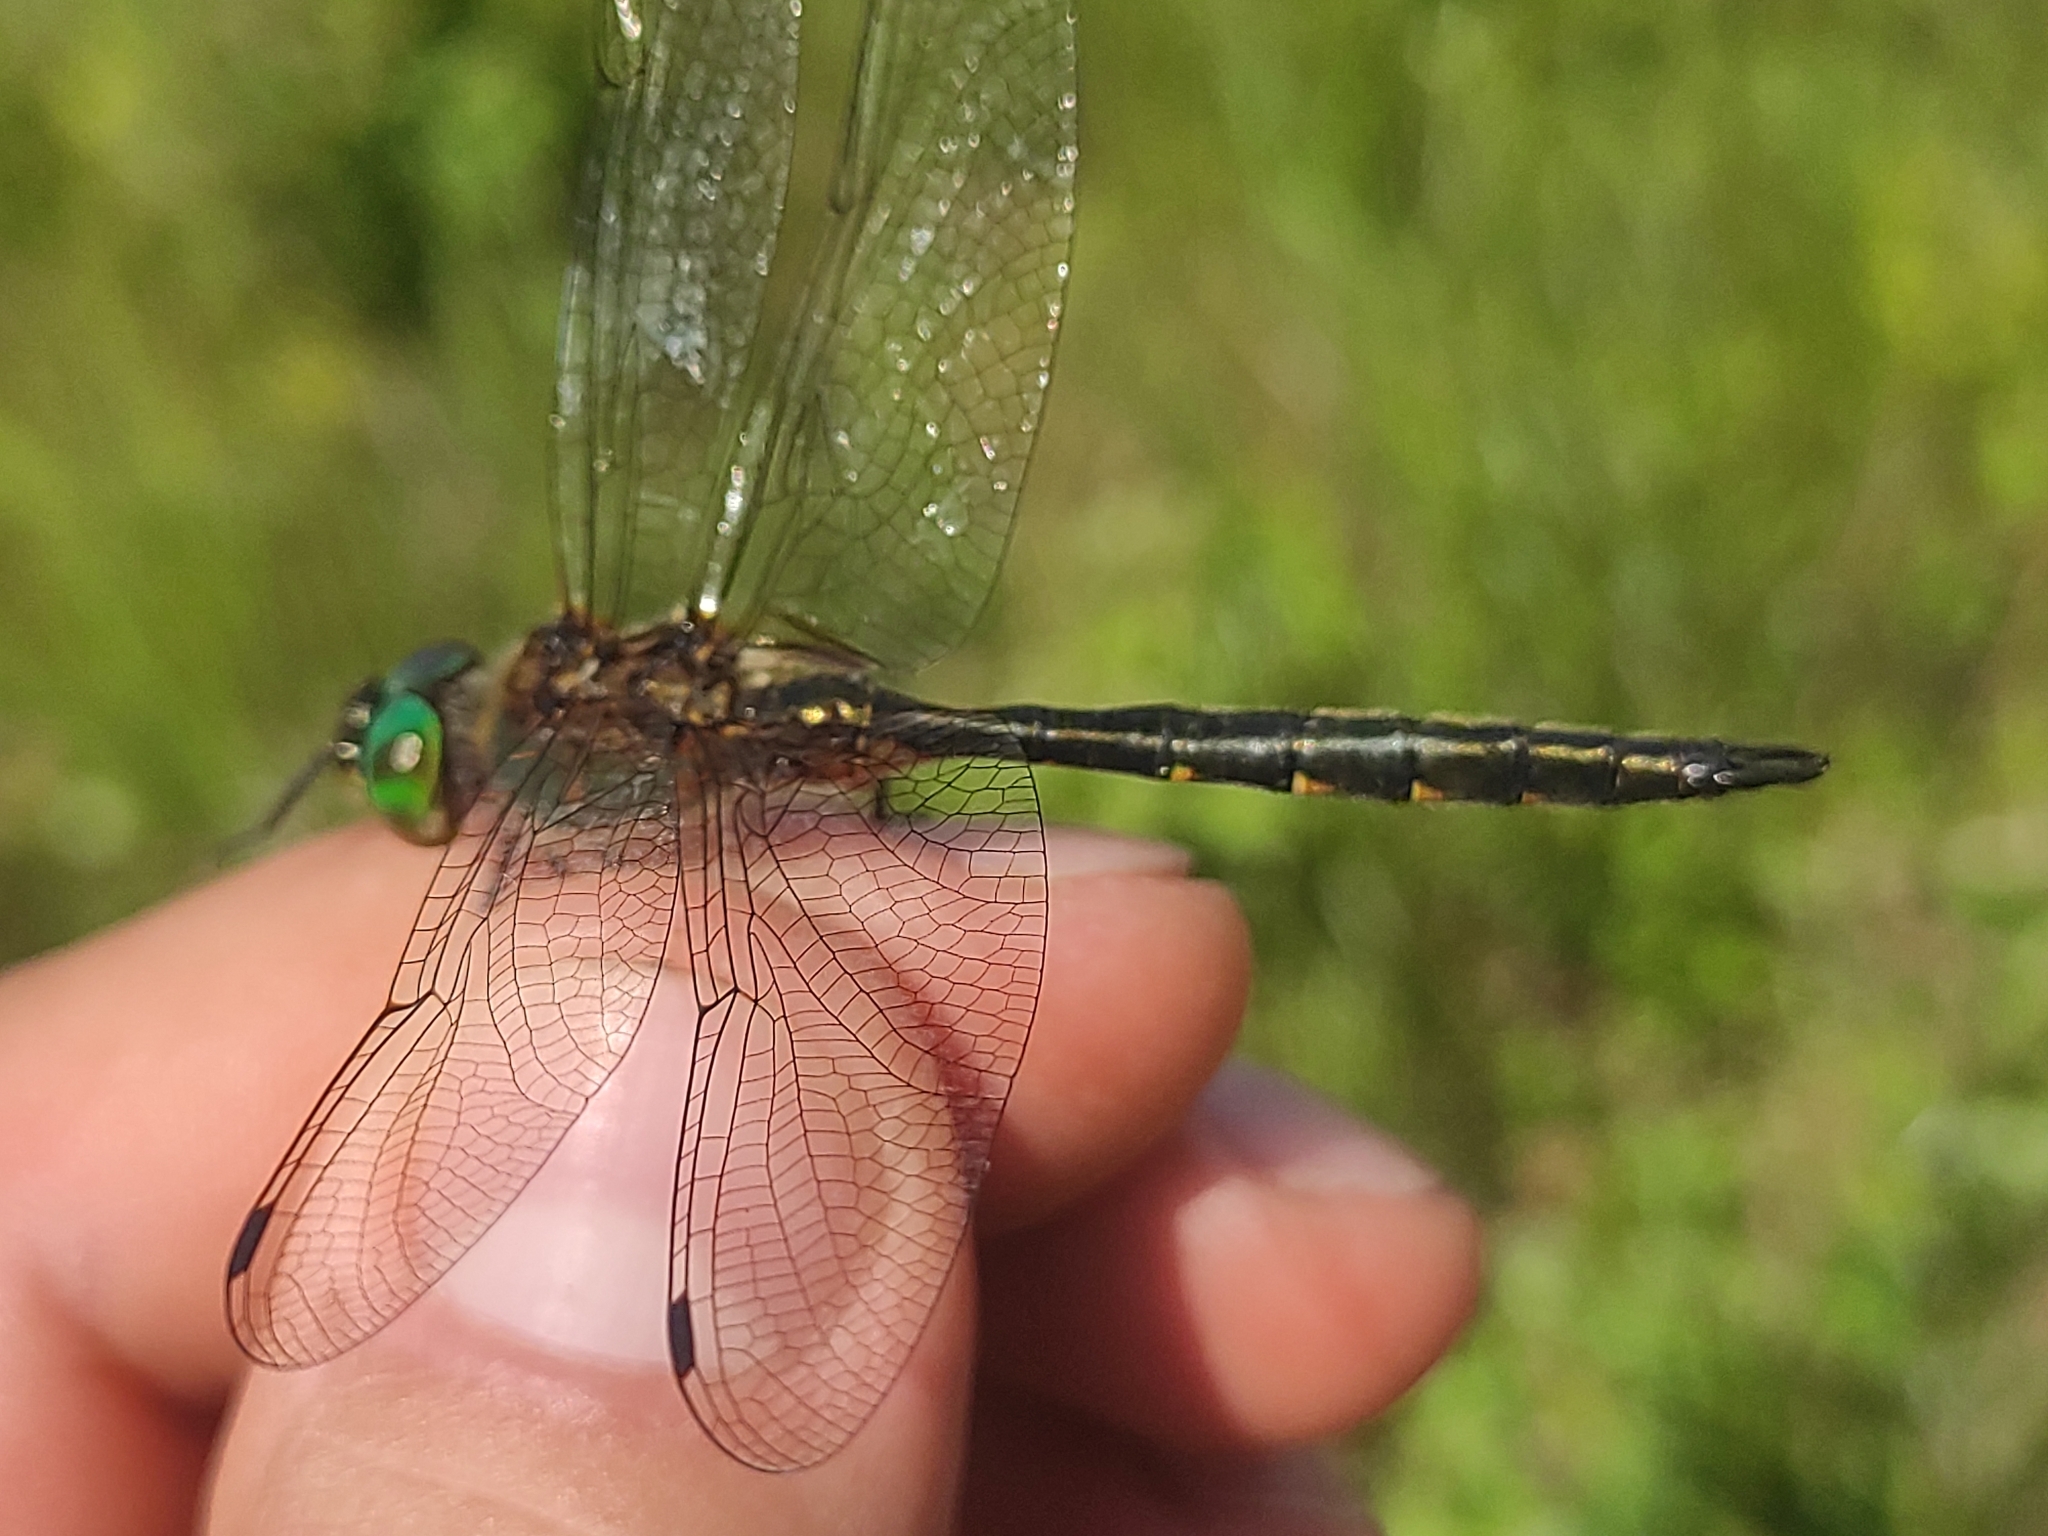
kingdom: Animalia
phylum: Arthropoda
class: Insecta
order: Odonata
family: Corduliidae
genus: Somatochlora
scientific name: Somatochlora flavomaculata
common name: Yellow-spotted emerald
